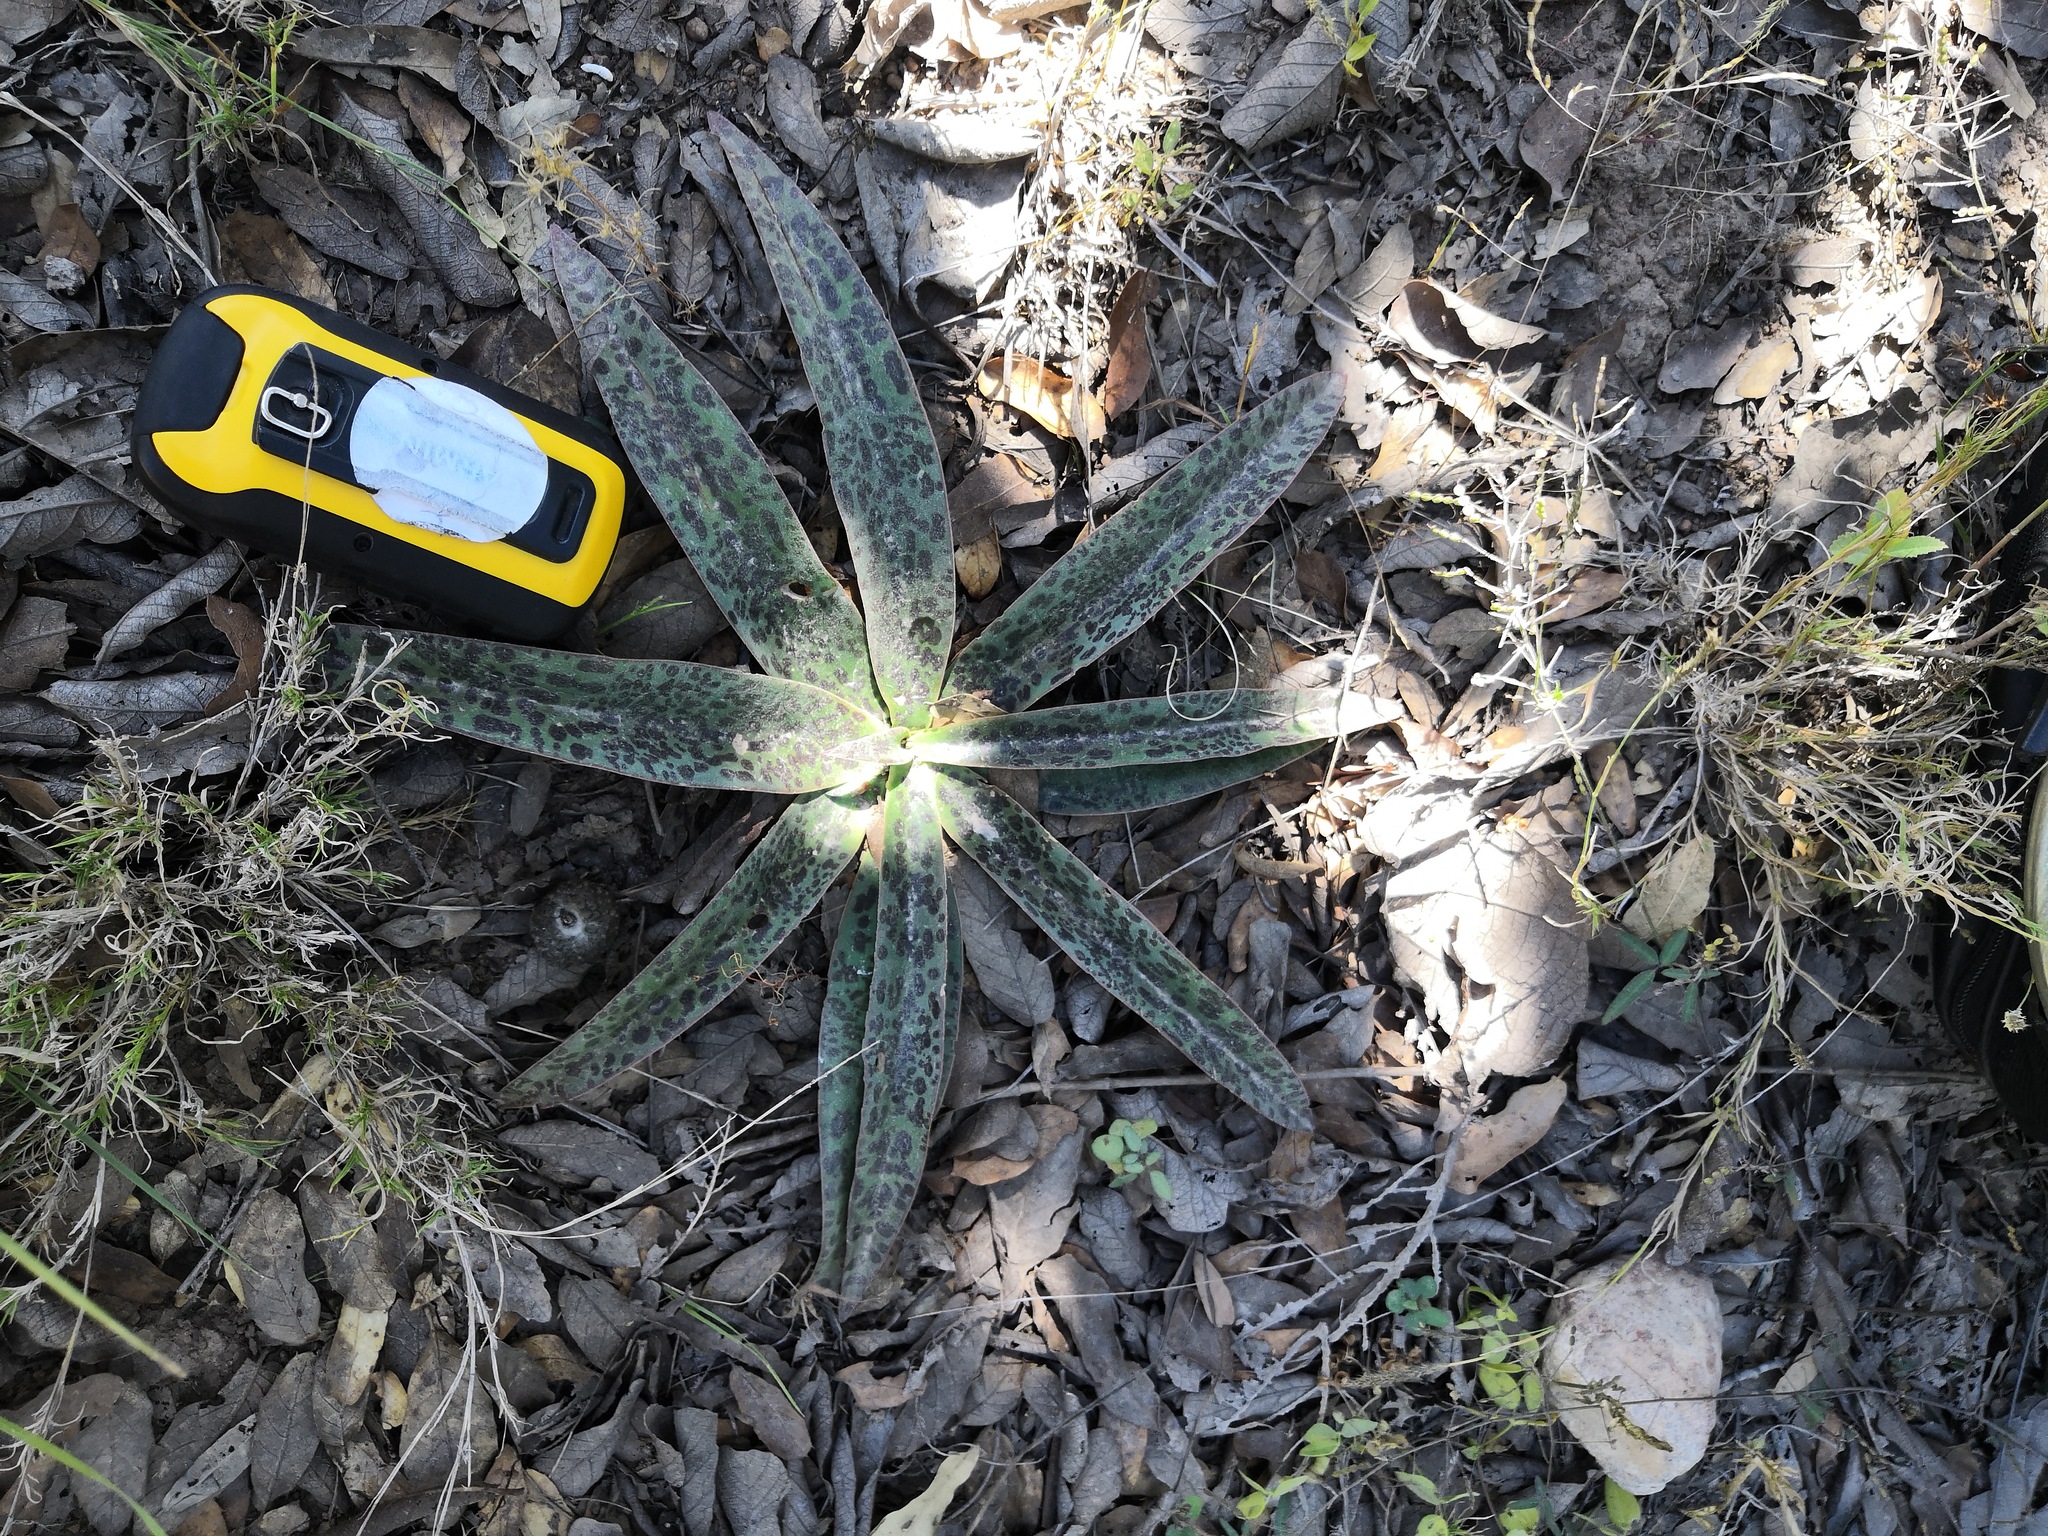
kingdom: Plantae
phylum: Tracheophyta
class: Liliopsida
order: Asparagales
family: Asparagaceae
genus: Agave
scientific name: Agave guttata
